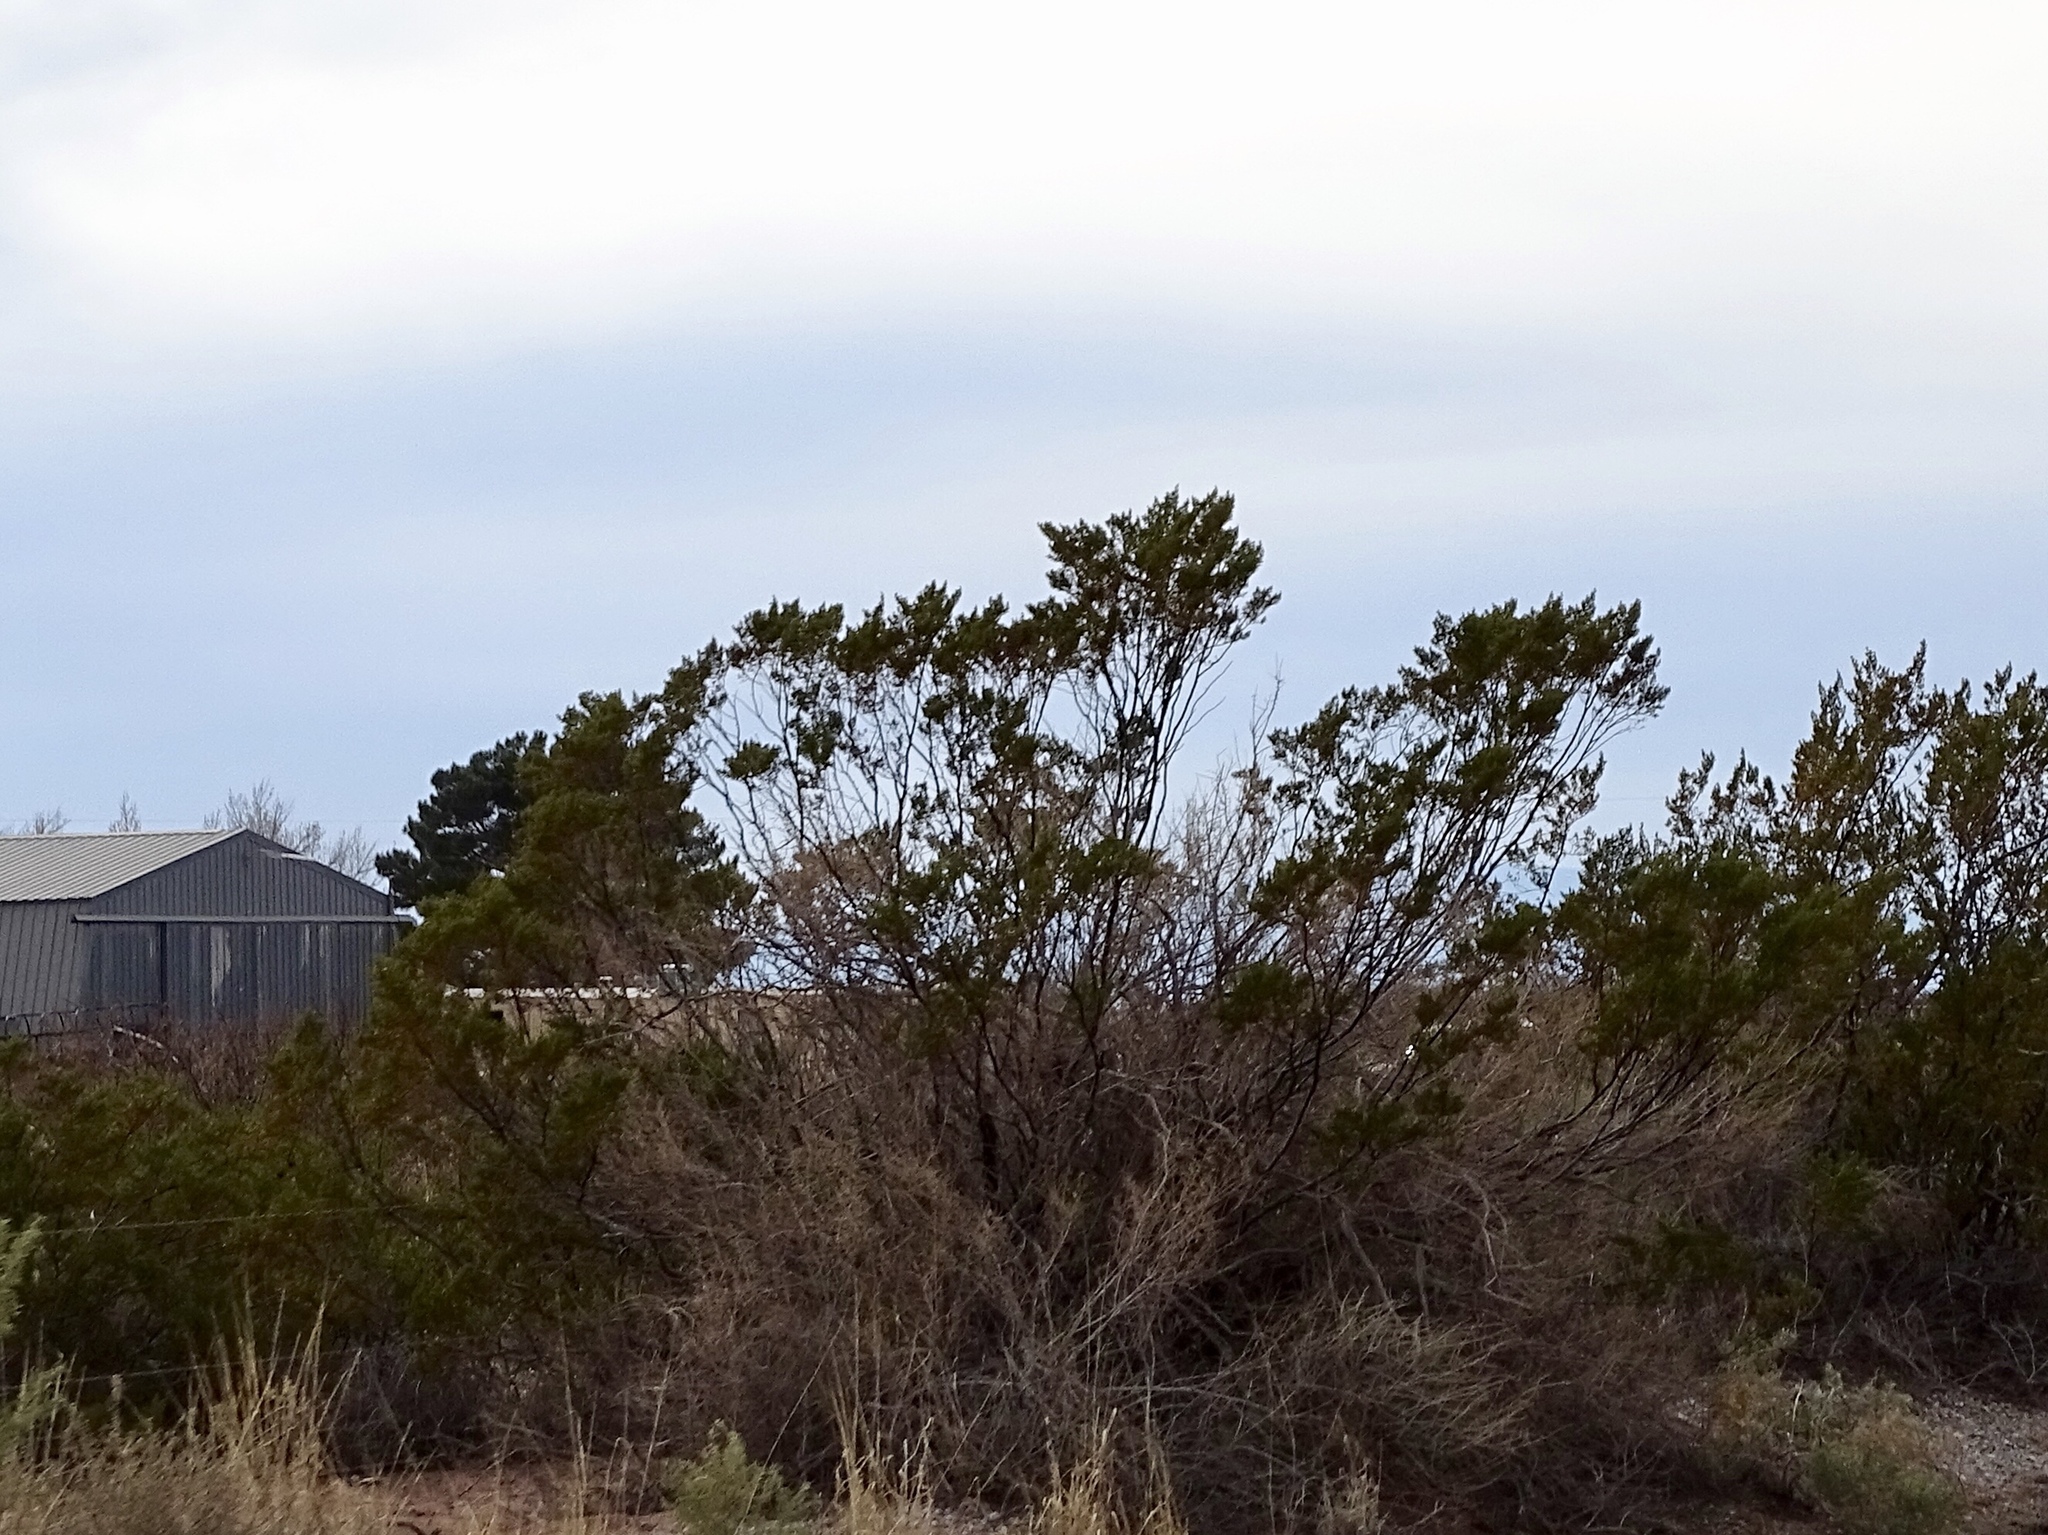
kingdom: Plantae
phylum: Tracheophyta
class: Magnoliopsida
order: Zygophyllales
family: Zygophyllaceae
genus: Larrea
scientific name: Larrea tridentata
